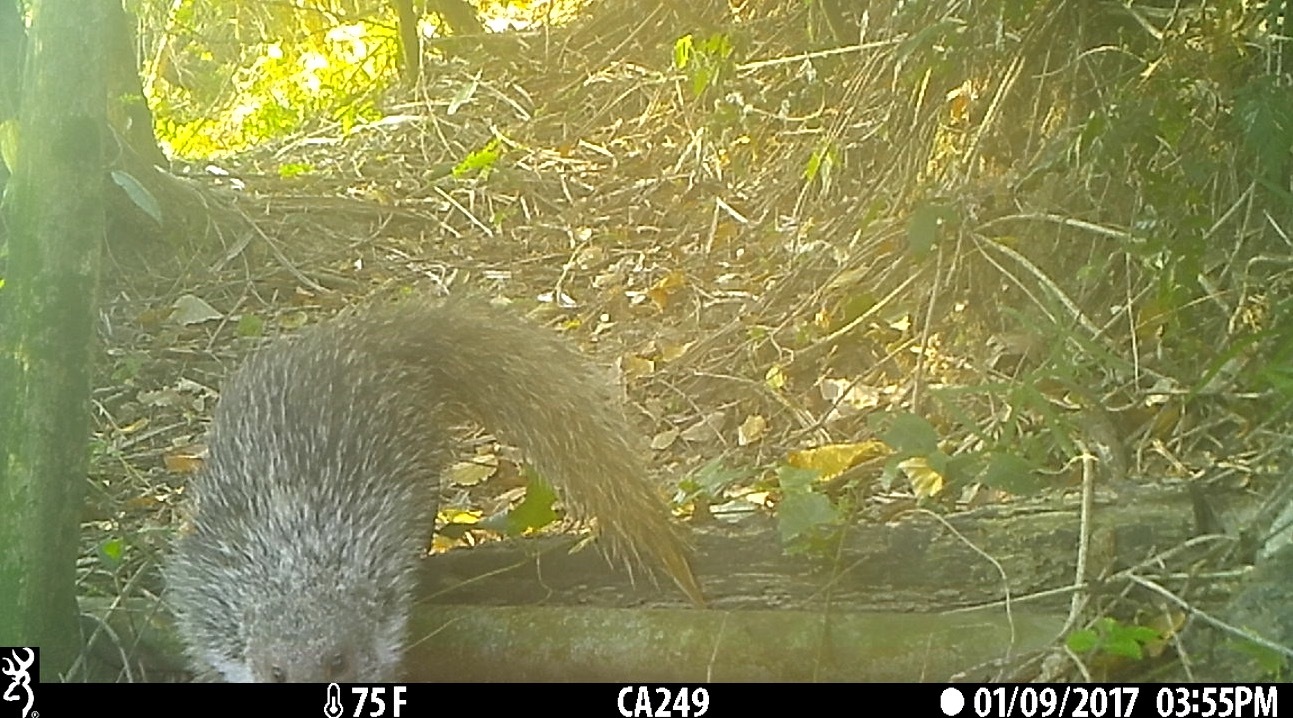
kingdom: Animalia
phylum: Chordata
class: Mammalia
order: Carnivora
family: Herpestidae
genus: Herpestes
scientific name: Herpestes urva
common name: Crab-eating mongoose
